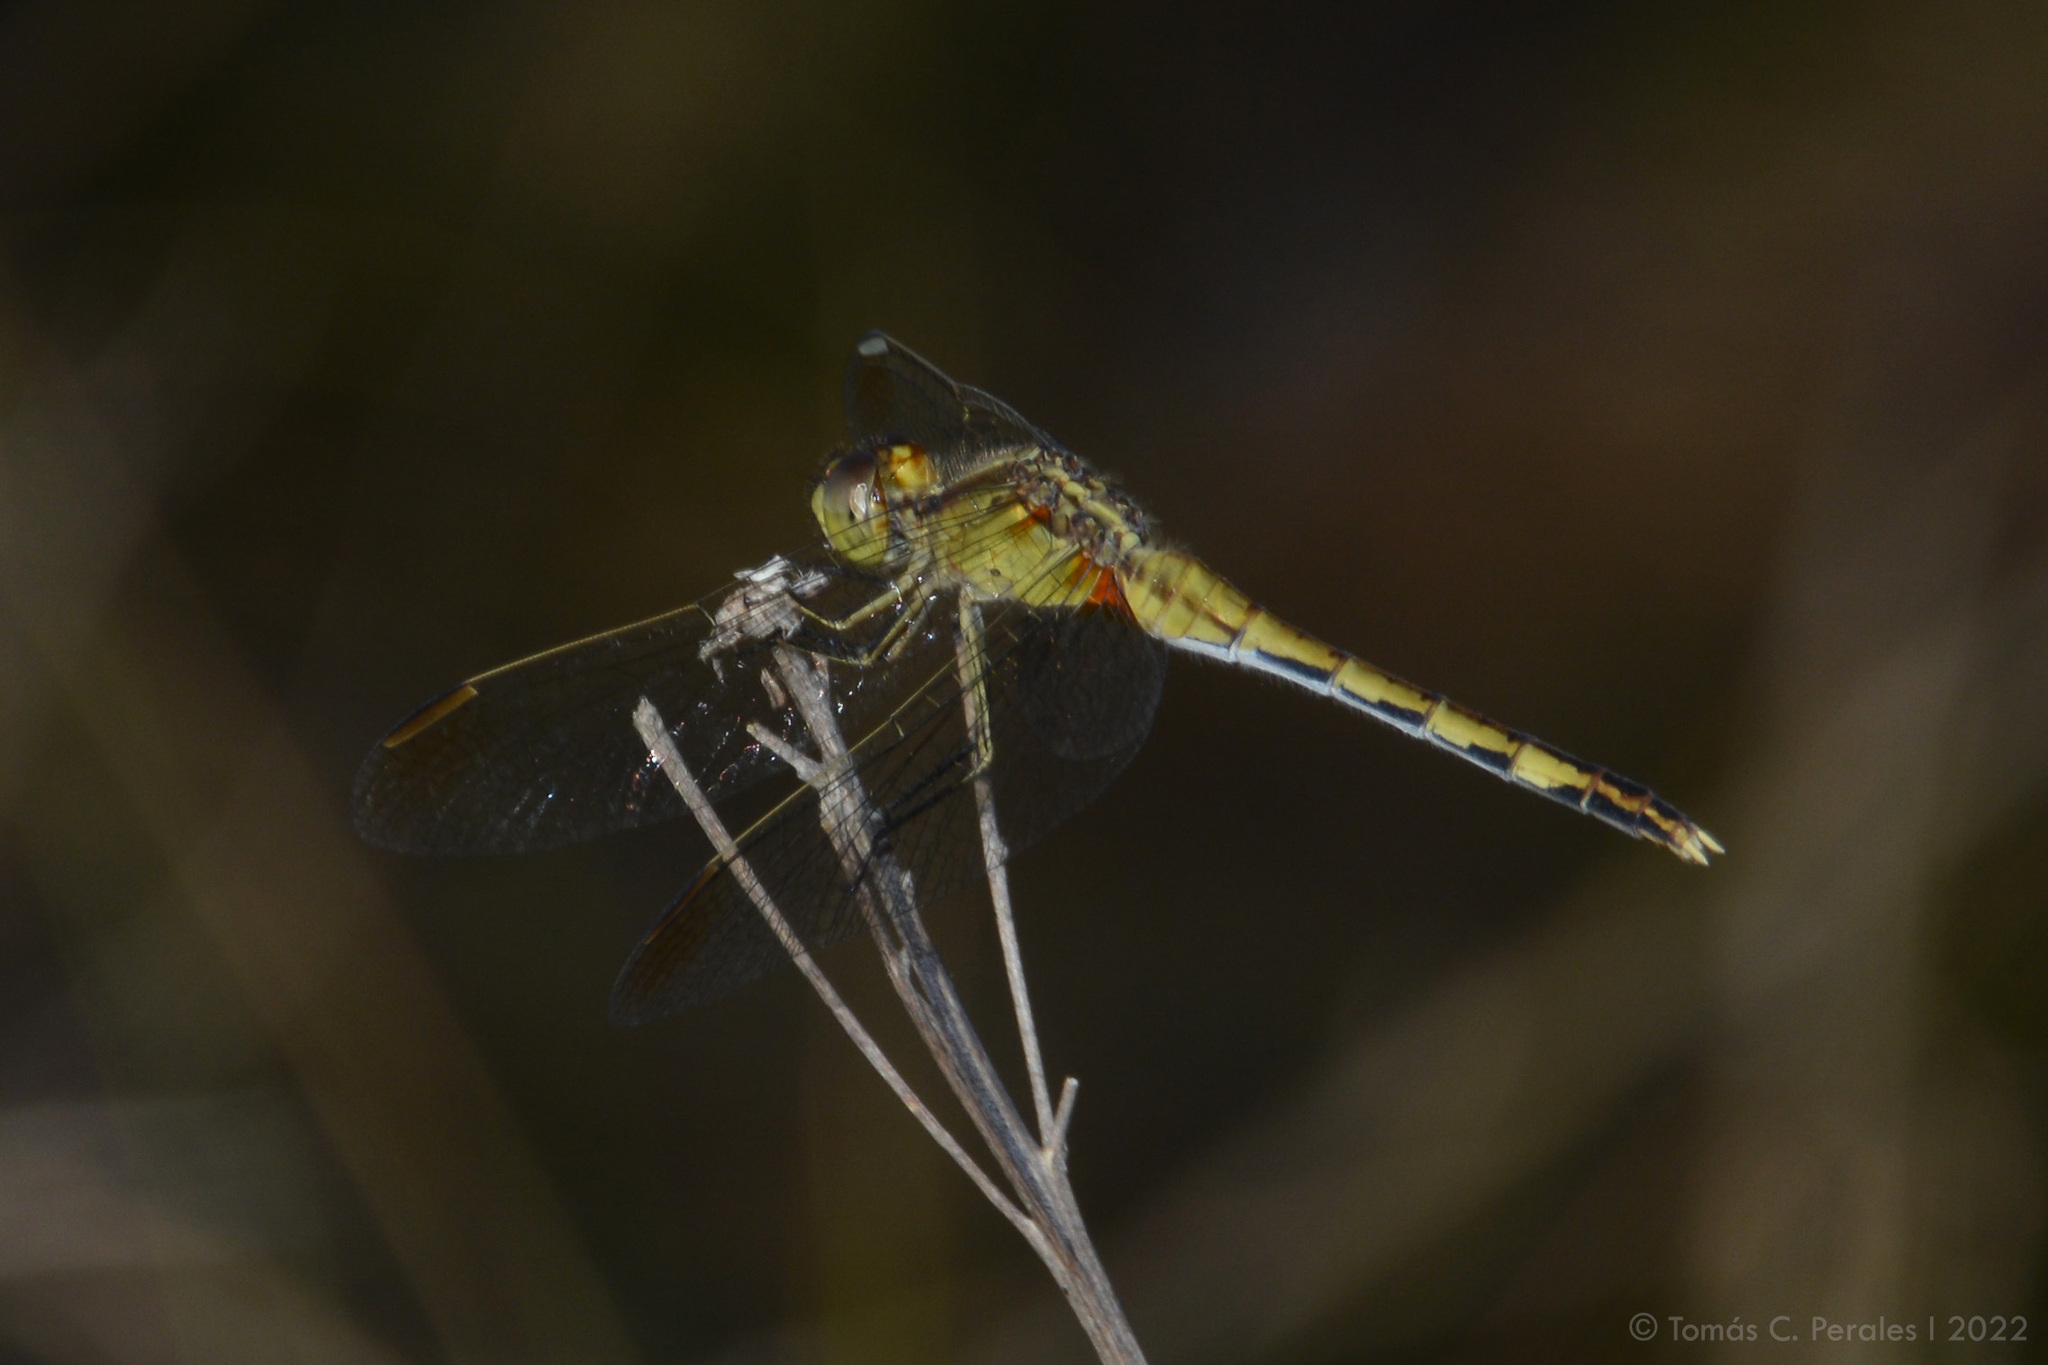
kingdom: Animalia
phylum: Arthropoda
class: Insecta
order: Odonata
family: Libellulidae
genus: Erythrodiplax
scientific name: Erythrodiplax nigricans
